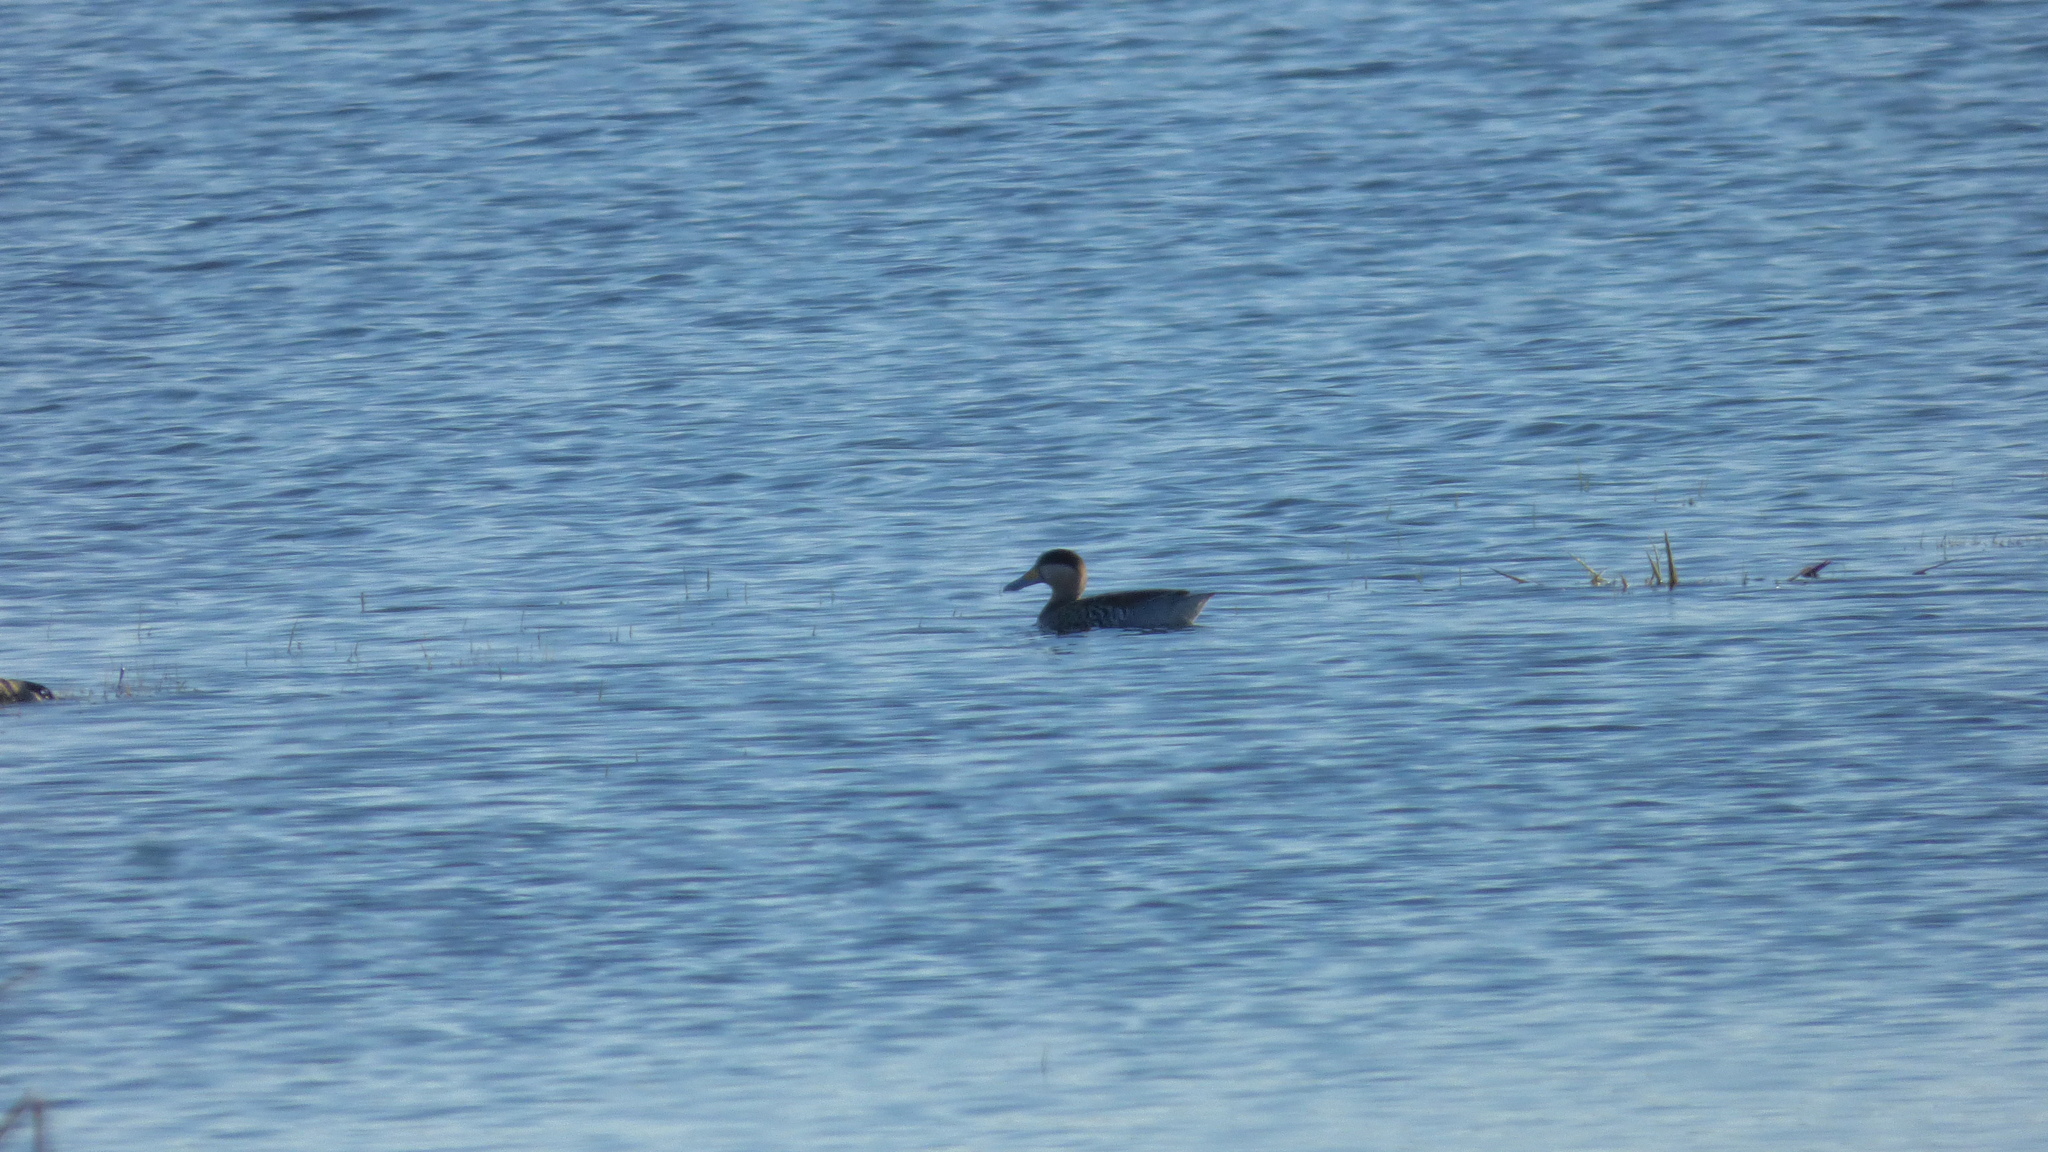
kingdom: Animalia
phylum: Chordata
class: Aves
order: Anseriformes
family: Anatidae
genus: Spatula
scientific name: Spatula versicolor
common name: Silver teal
